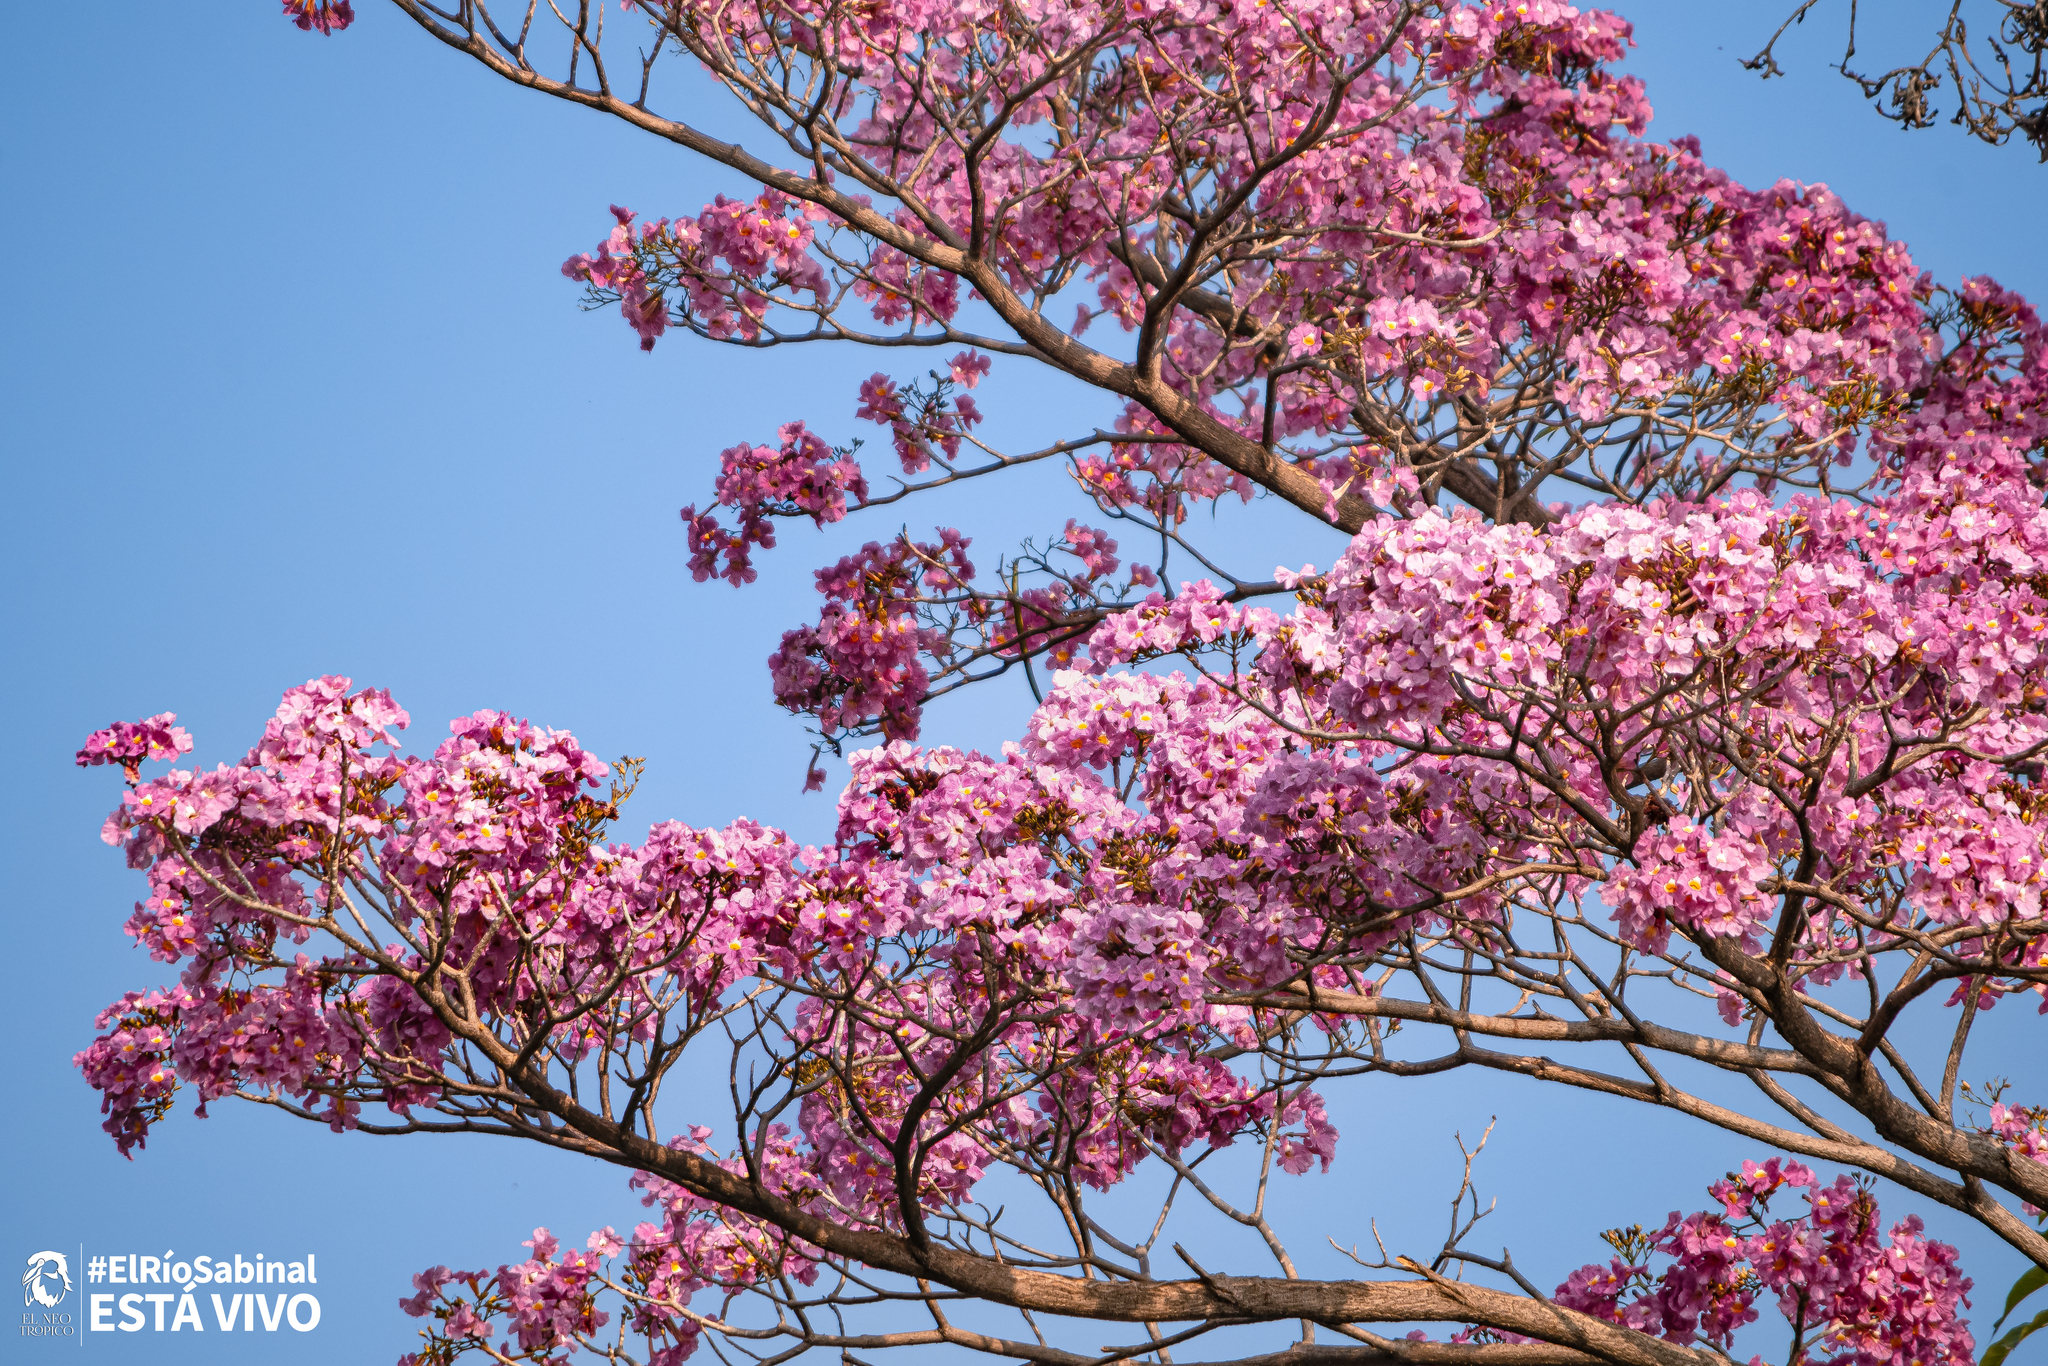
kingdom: Plantae
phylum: Tracheophyta
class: Magnoliopsida
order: Lamiales
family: Bignoniaceae
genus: Tabebuia
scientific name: Tabebuia rosea
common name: Pink poui
